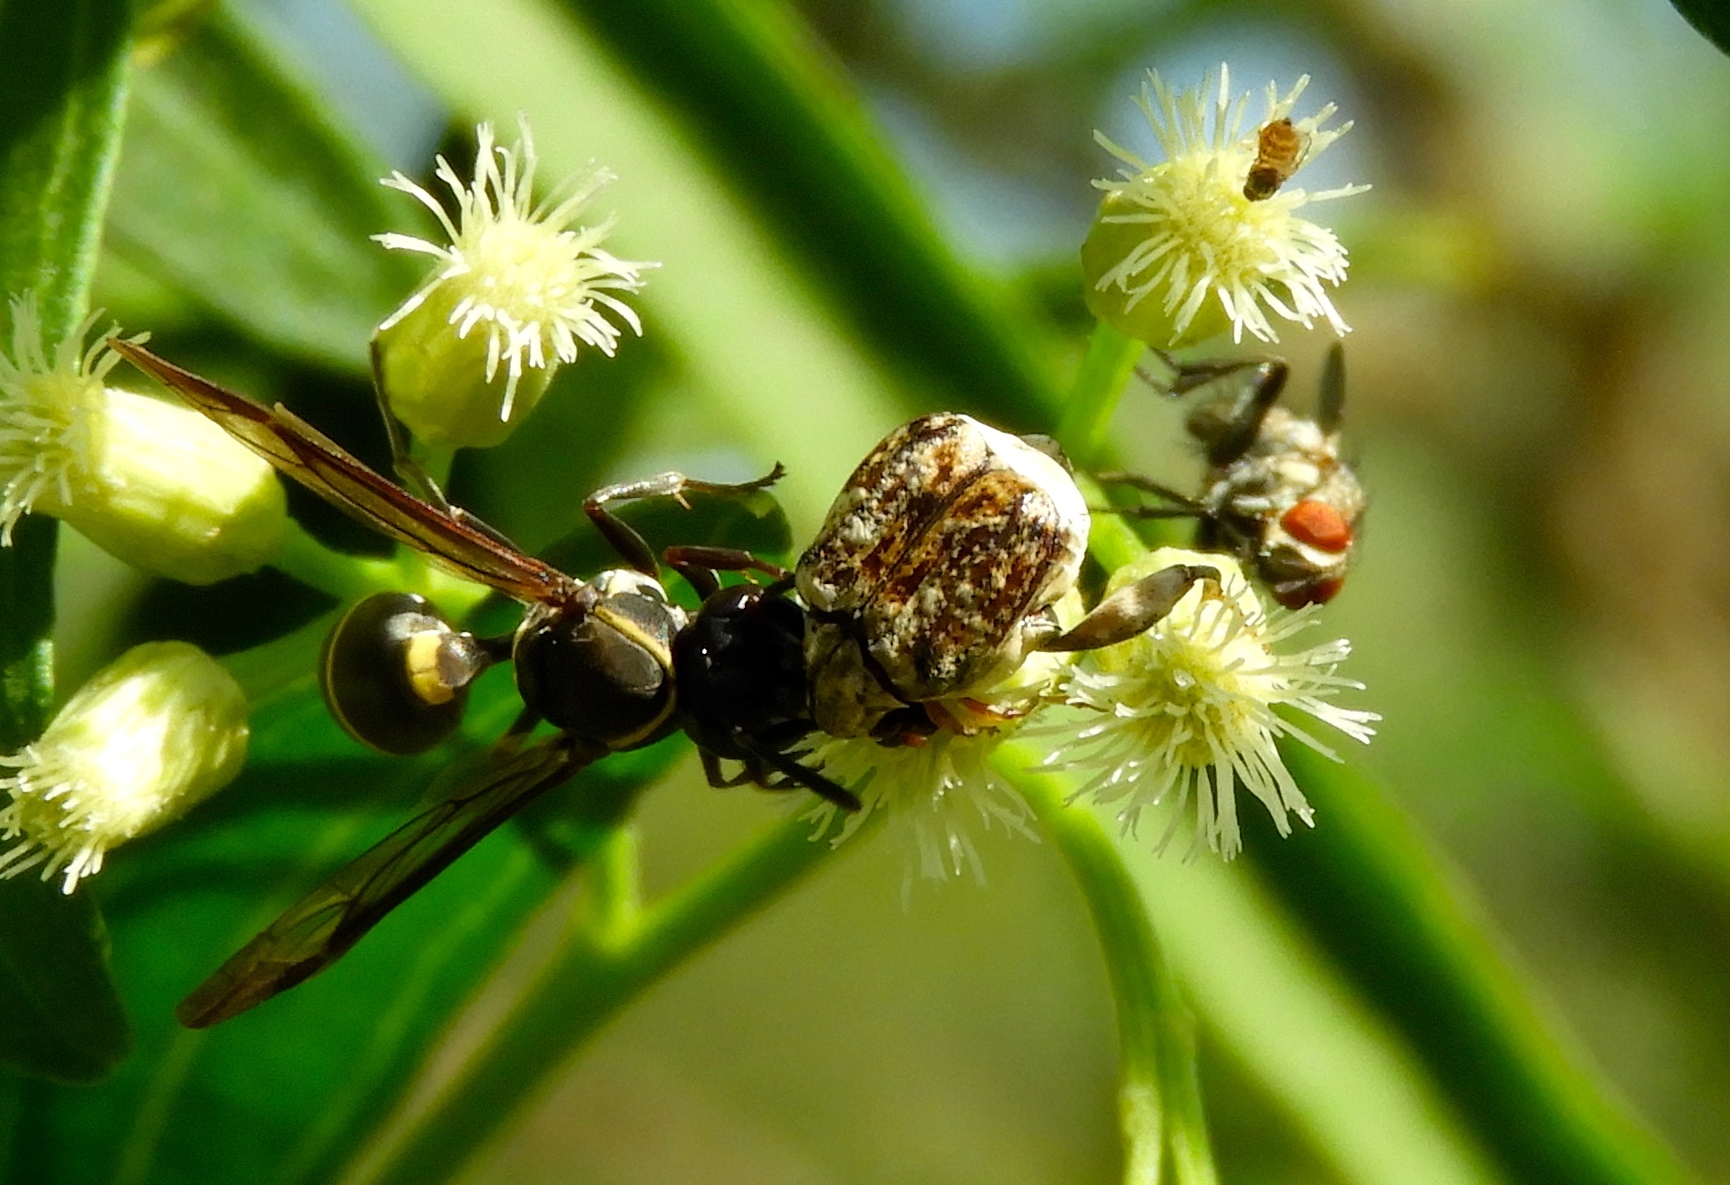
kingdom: Animalia
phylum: Arthropoda
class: Insecta
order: Hymenoptera
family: Vespidae
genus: Myrapetra
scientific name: Myrapetra
